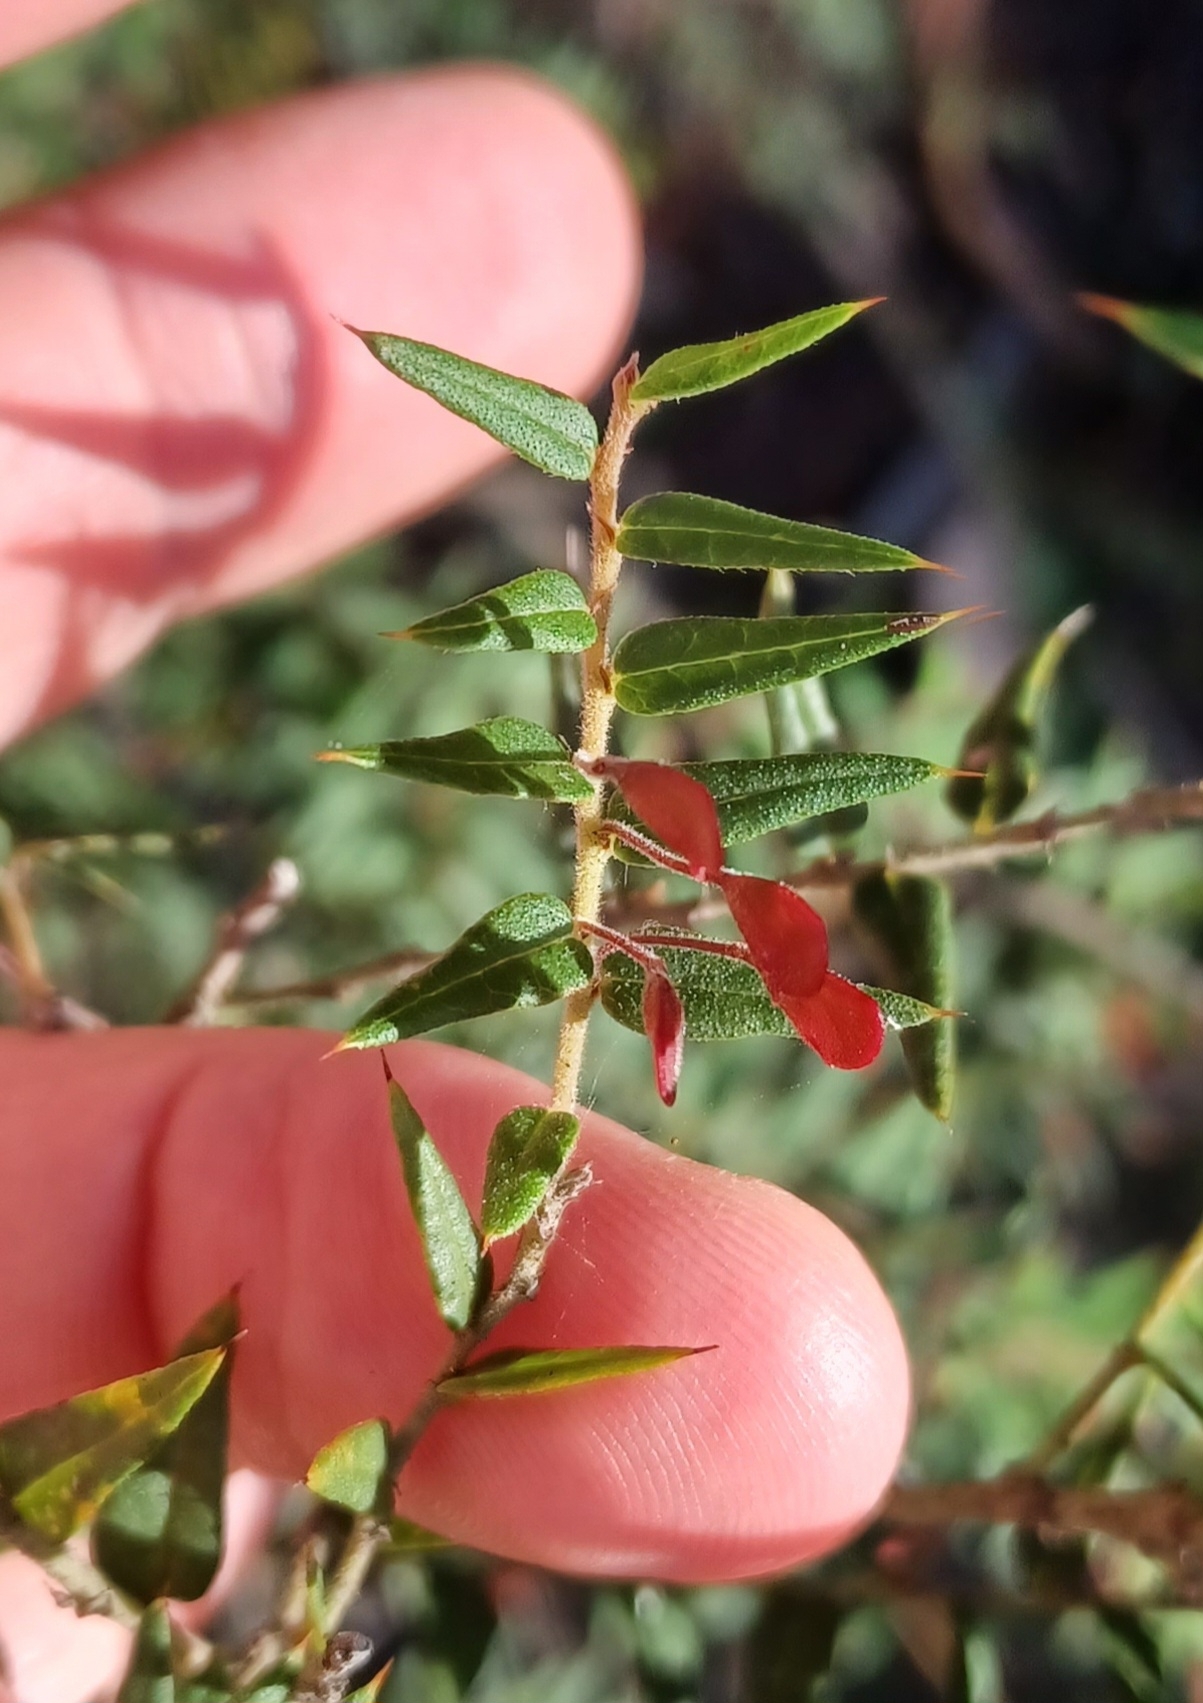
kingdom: Plantae
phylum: Tracheophyta
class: Magnoliopsida
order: Fabales
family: Fabaceae
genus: Bossiaea
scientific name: Bossiaea cinerea
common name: Showy bossiaea
